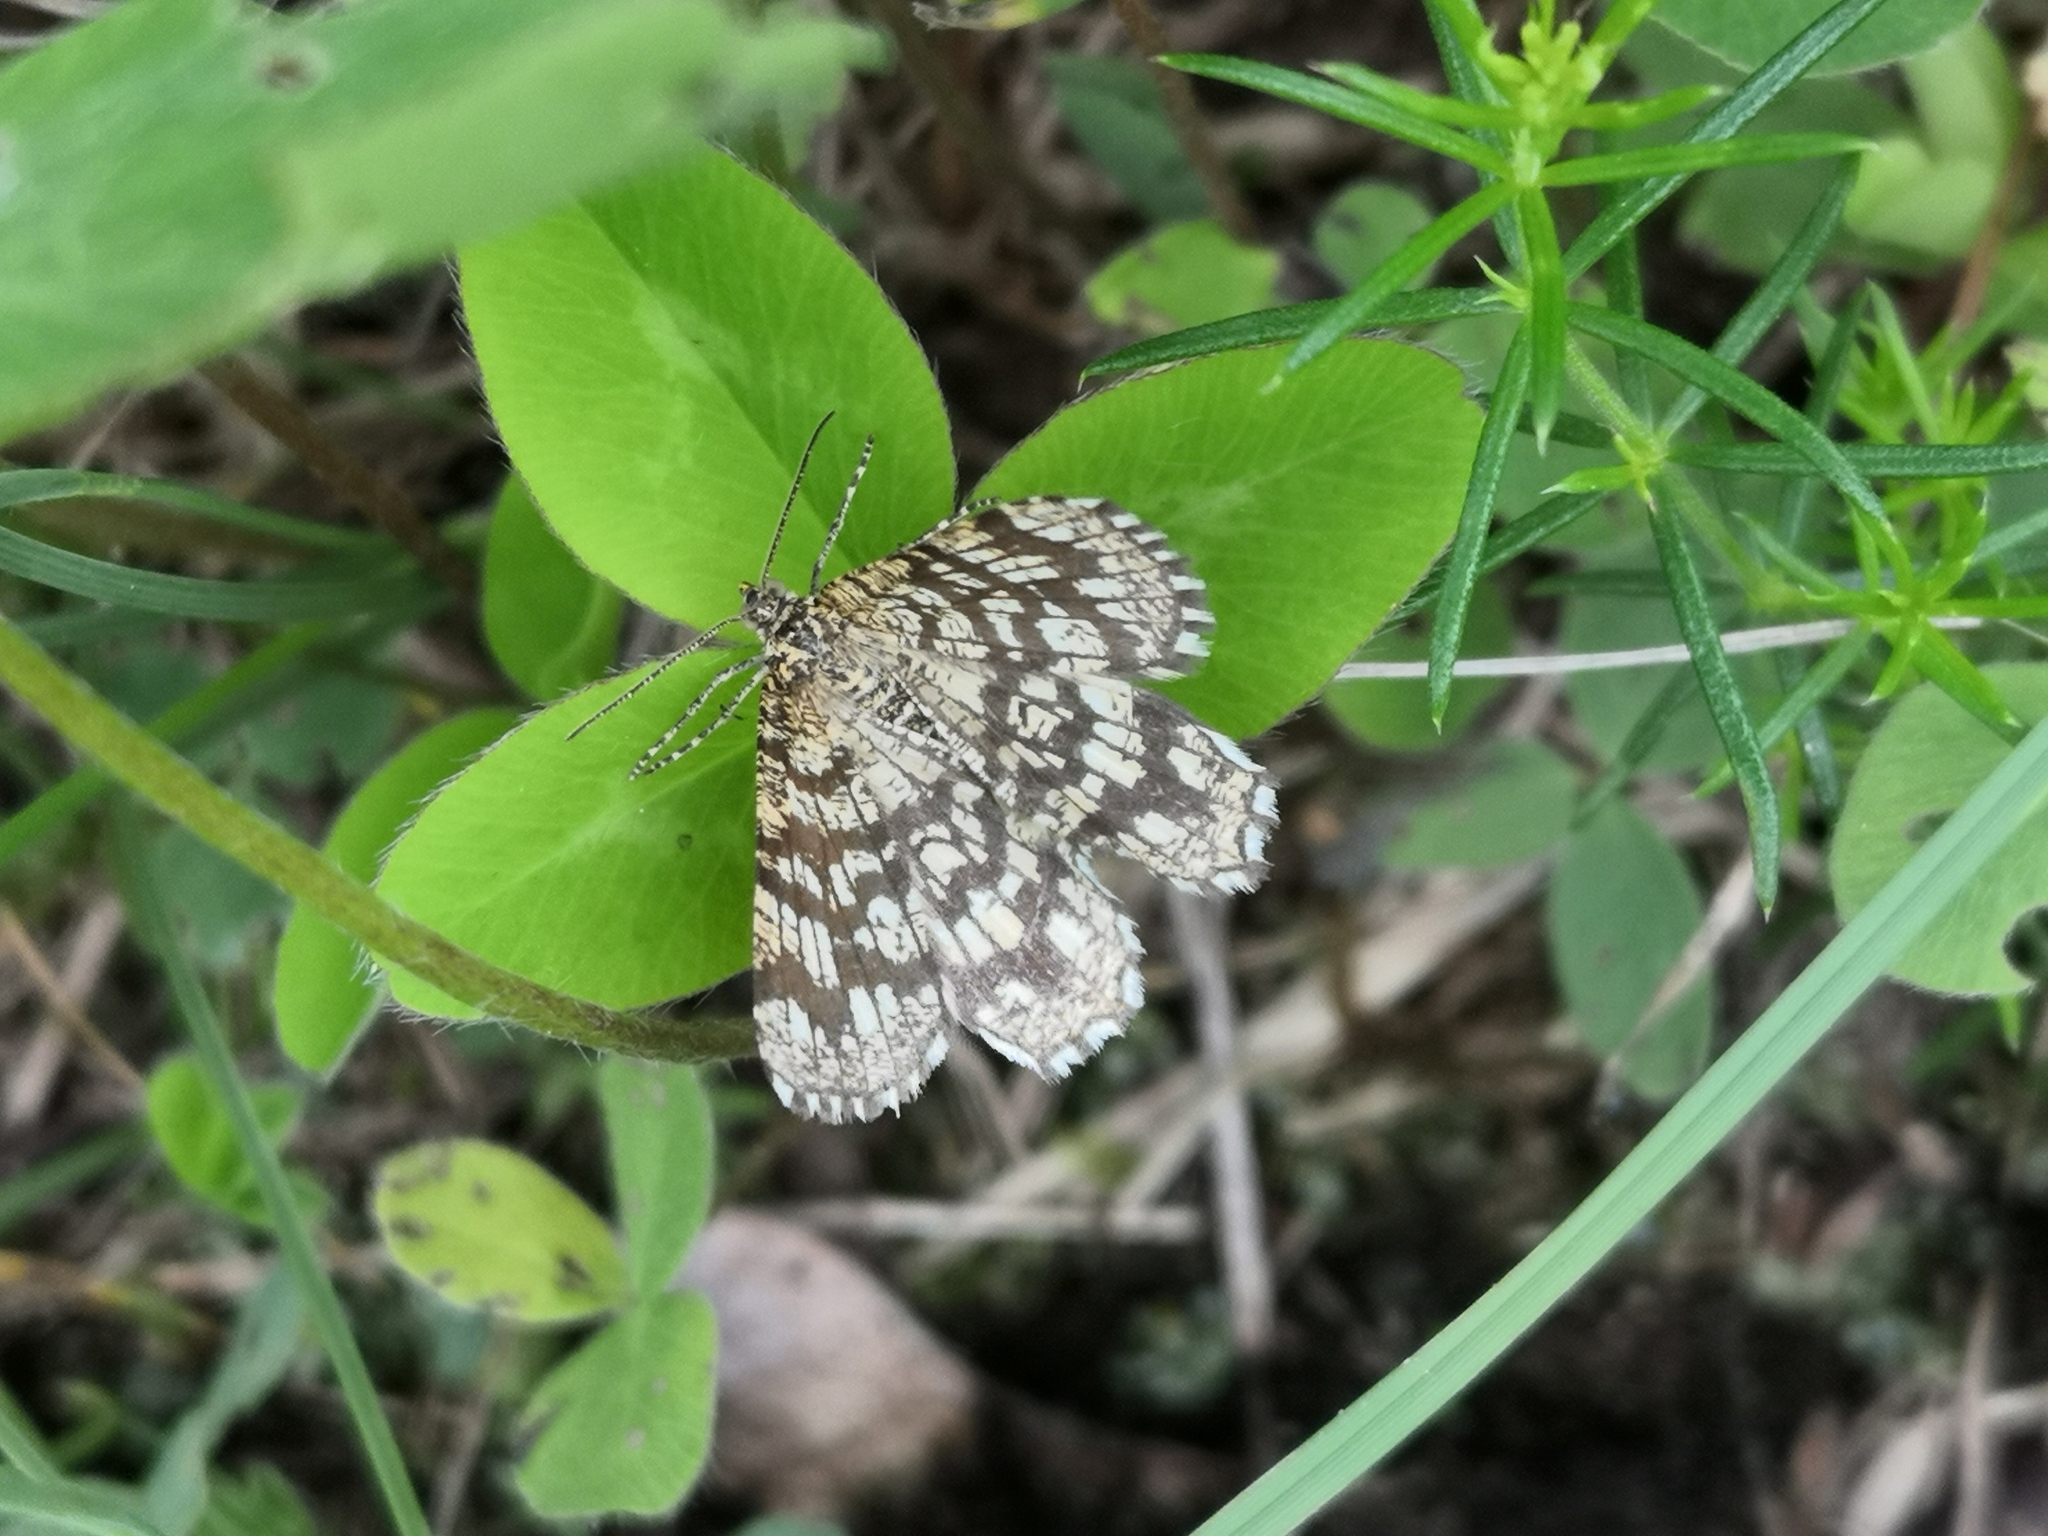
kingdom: Animalia
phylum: Arthropoda
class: Insecta
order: Lepidoptera
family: Geometridae
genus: Chiasmia
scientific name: Chiasmia clathrata
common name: Latticed heath
